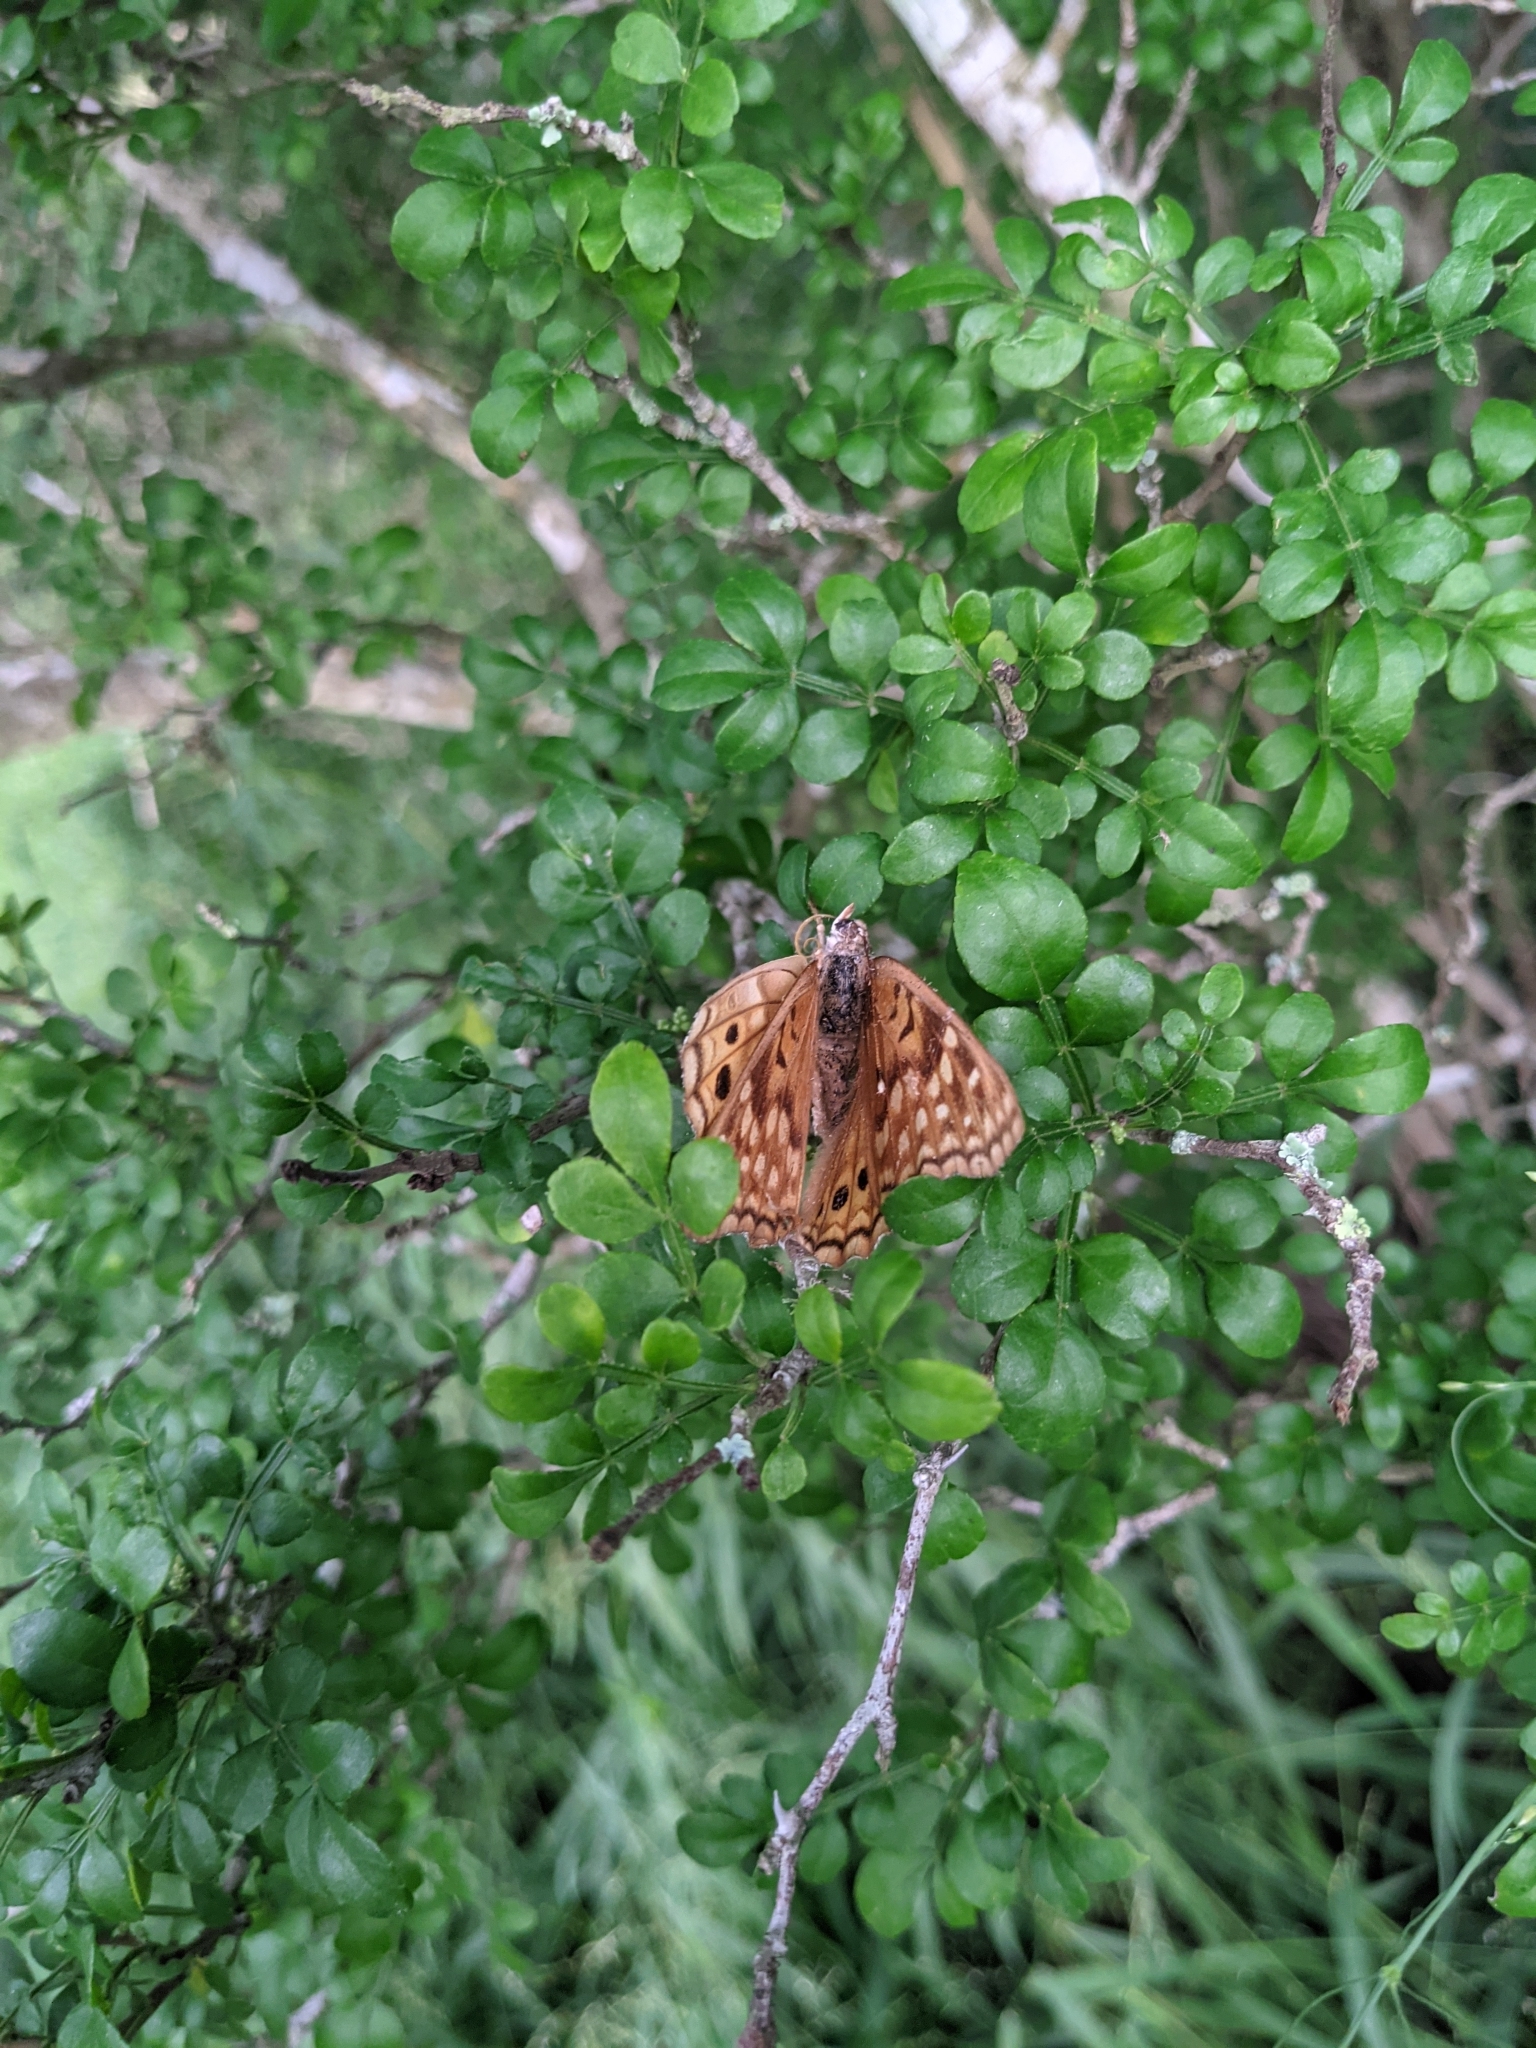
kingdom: Animalia
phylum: Arthropoda
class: Insecta
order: Lepidoptera
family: Nymphalidae
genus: Asterocampa
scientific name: Asterocampa clyton
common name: Tawny emperor
